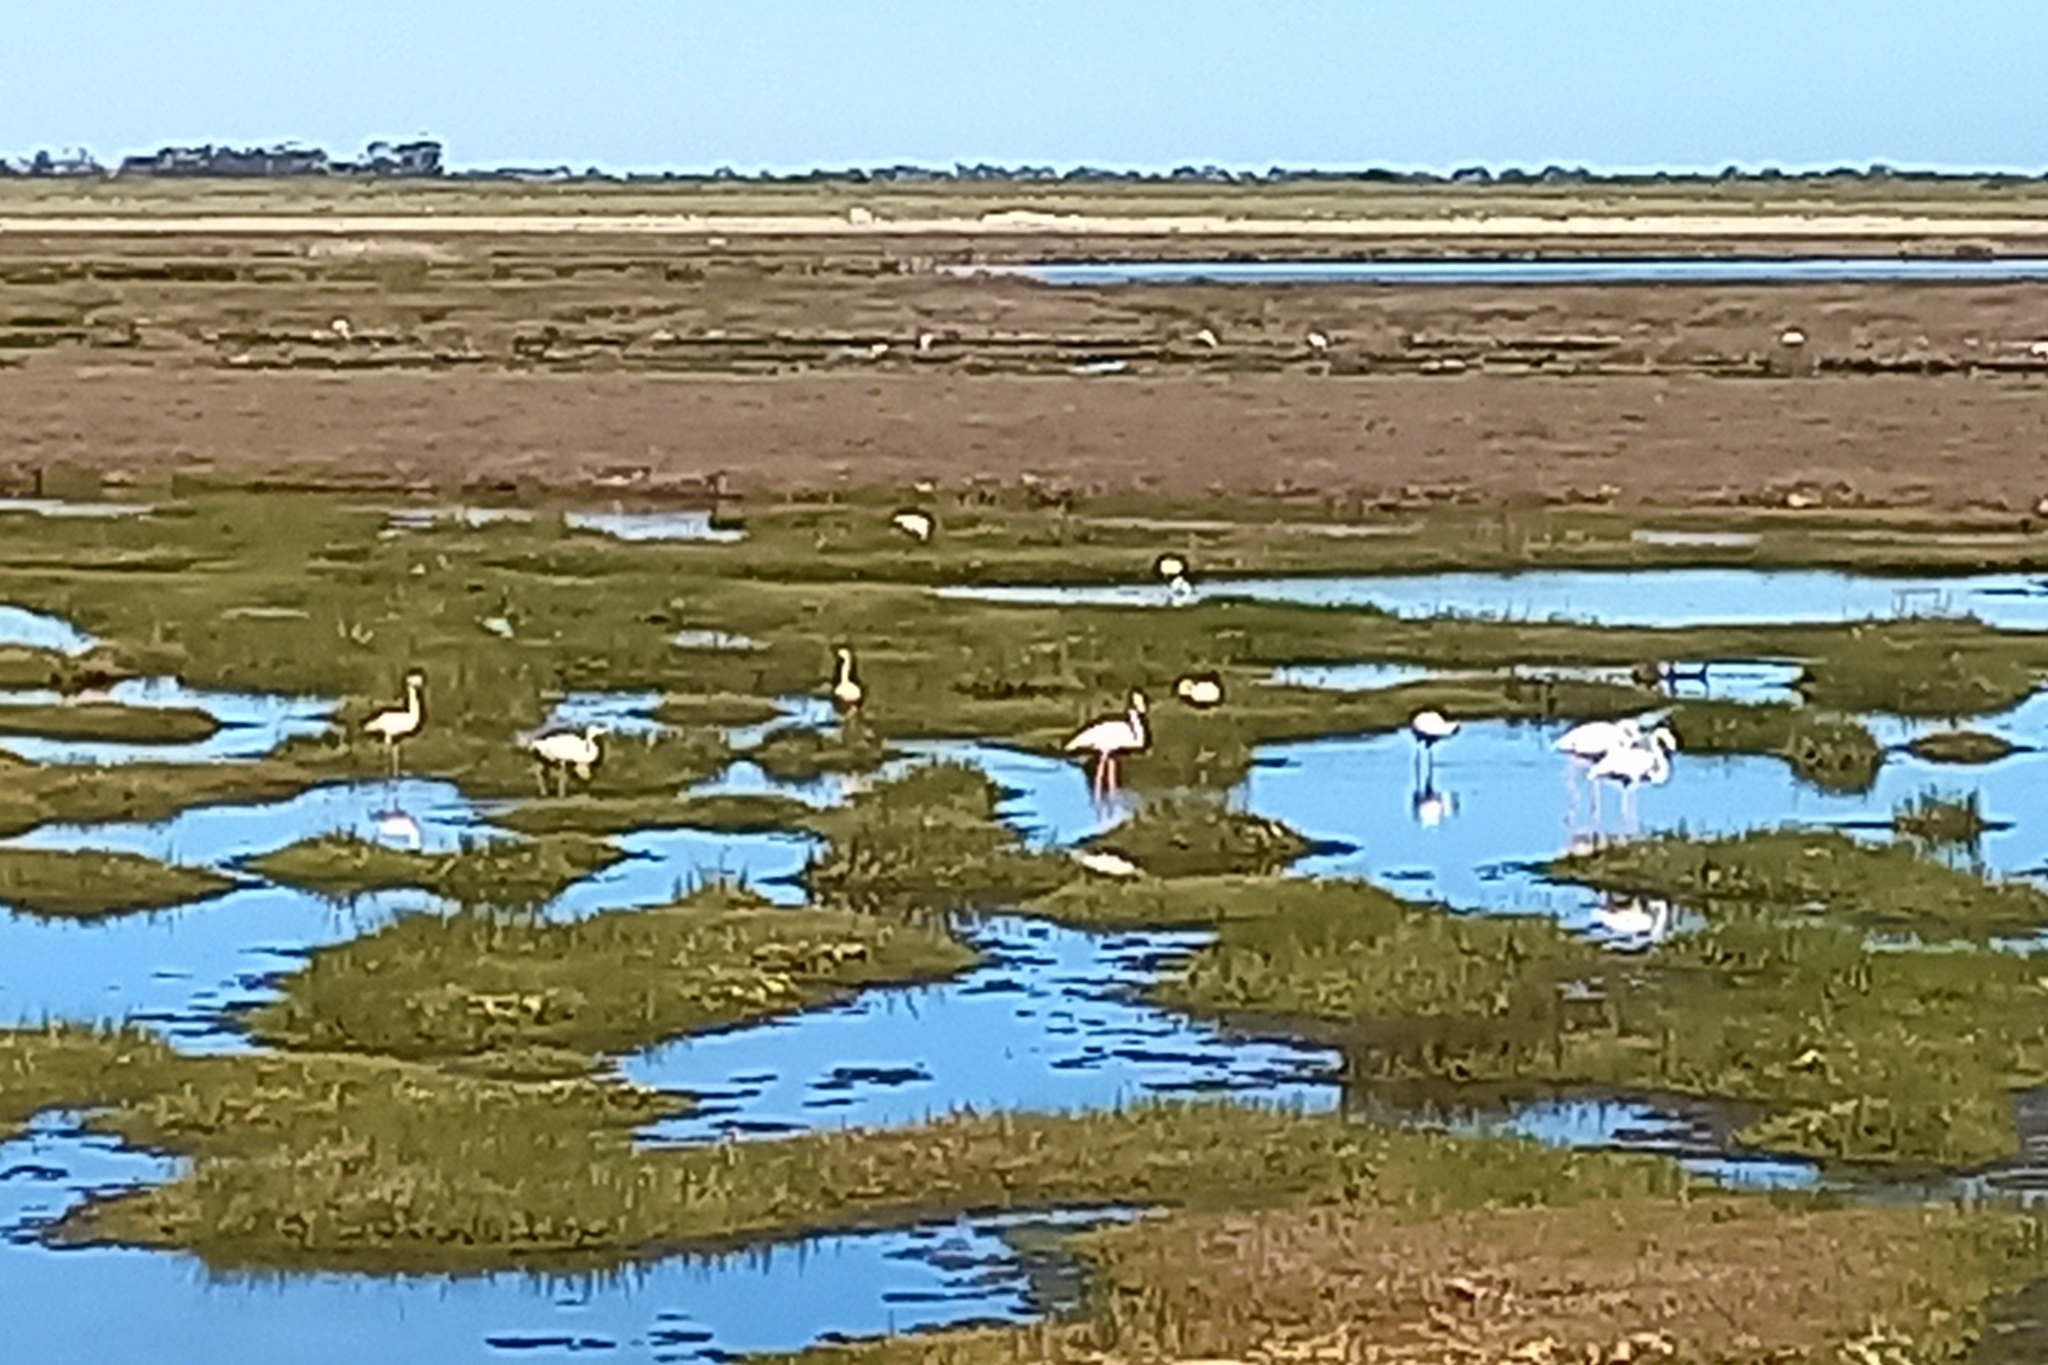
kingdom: Animalia
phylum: Chordata
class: Aves
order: Phoenicopteriformes
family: Phoenicopteridae
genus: Phoenicopterus
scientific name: Phoenicopterus roseus
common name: Greater flamingo
